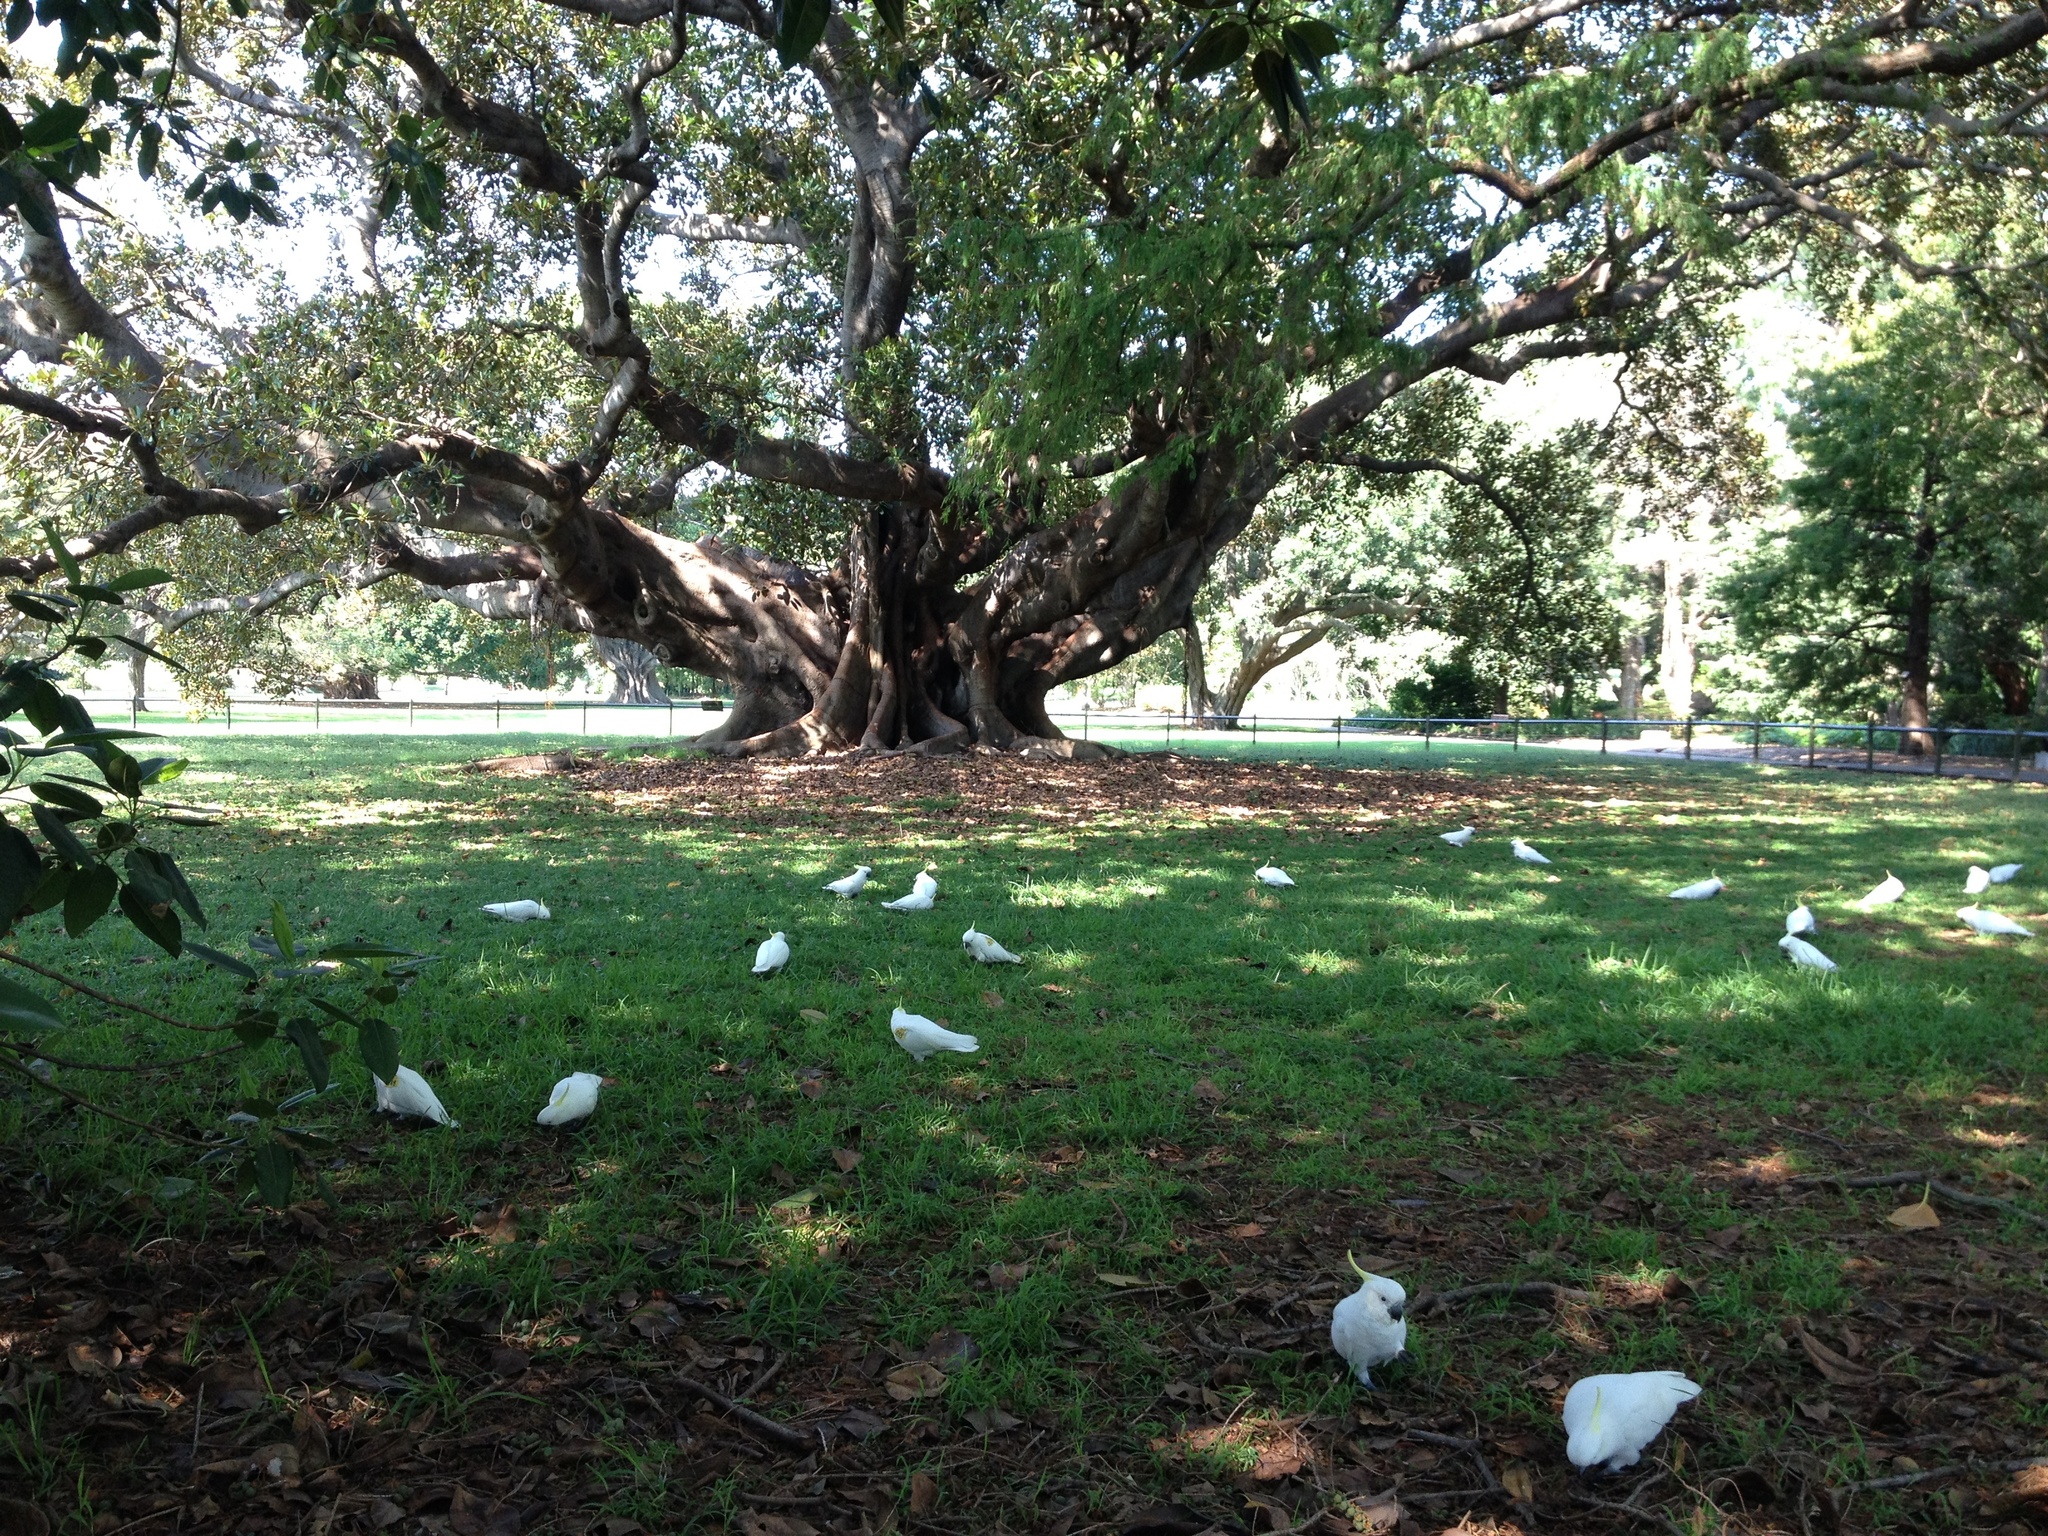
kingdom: Animalia
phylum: Chordata
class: Aves
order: Psittaciformes
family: Psittacidae
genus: Cacatua
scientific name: Cacatua galerita
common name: Sulphur-crested cockatoo
